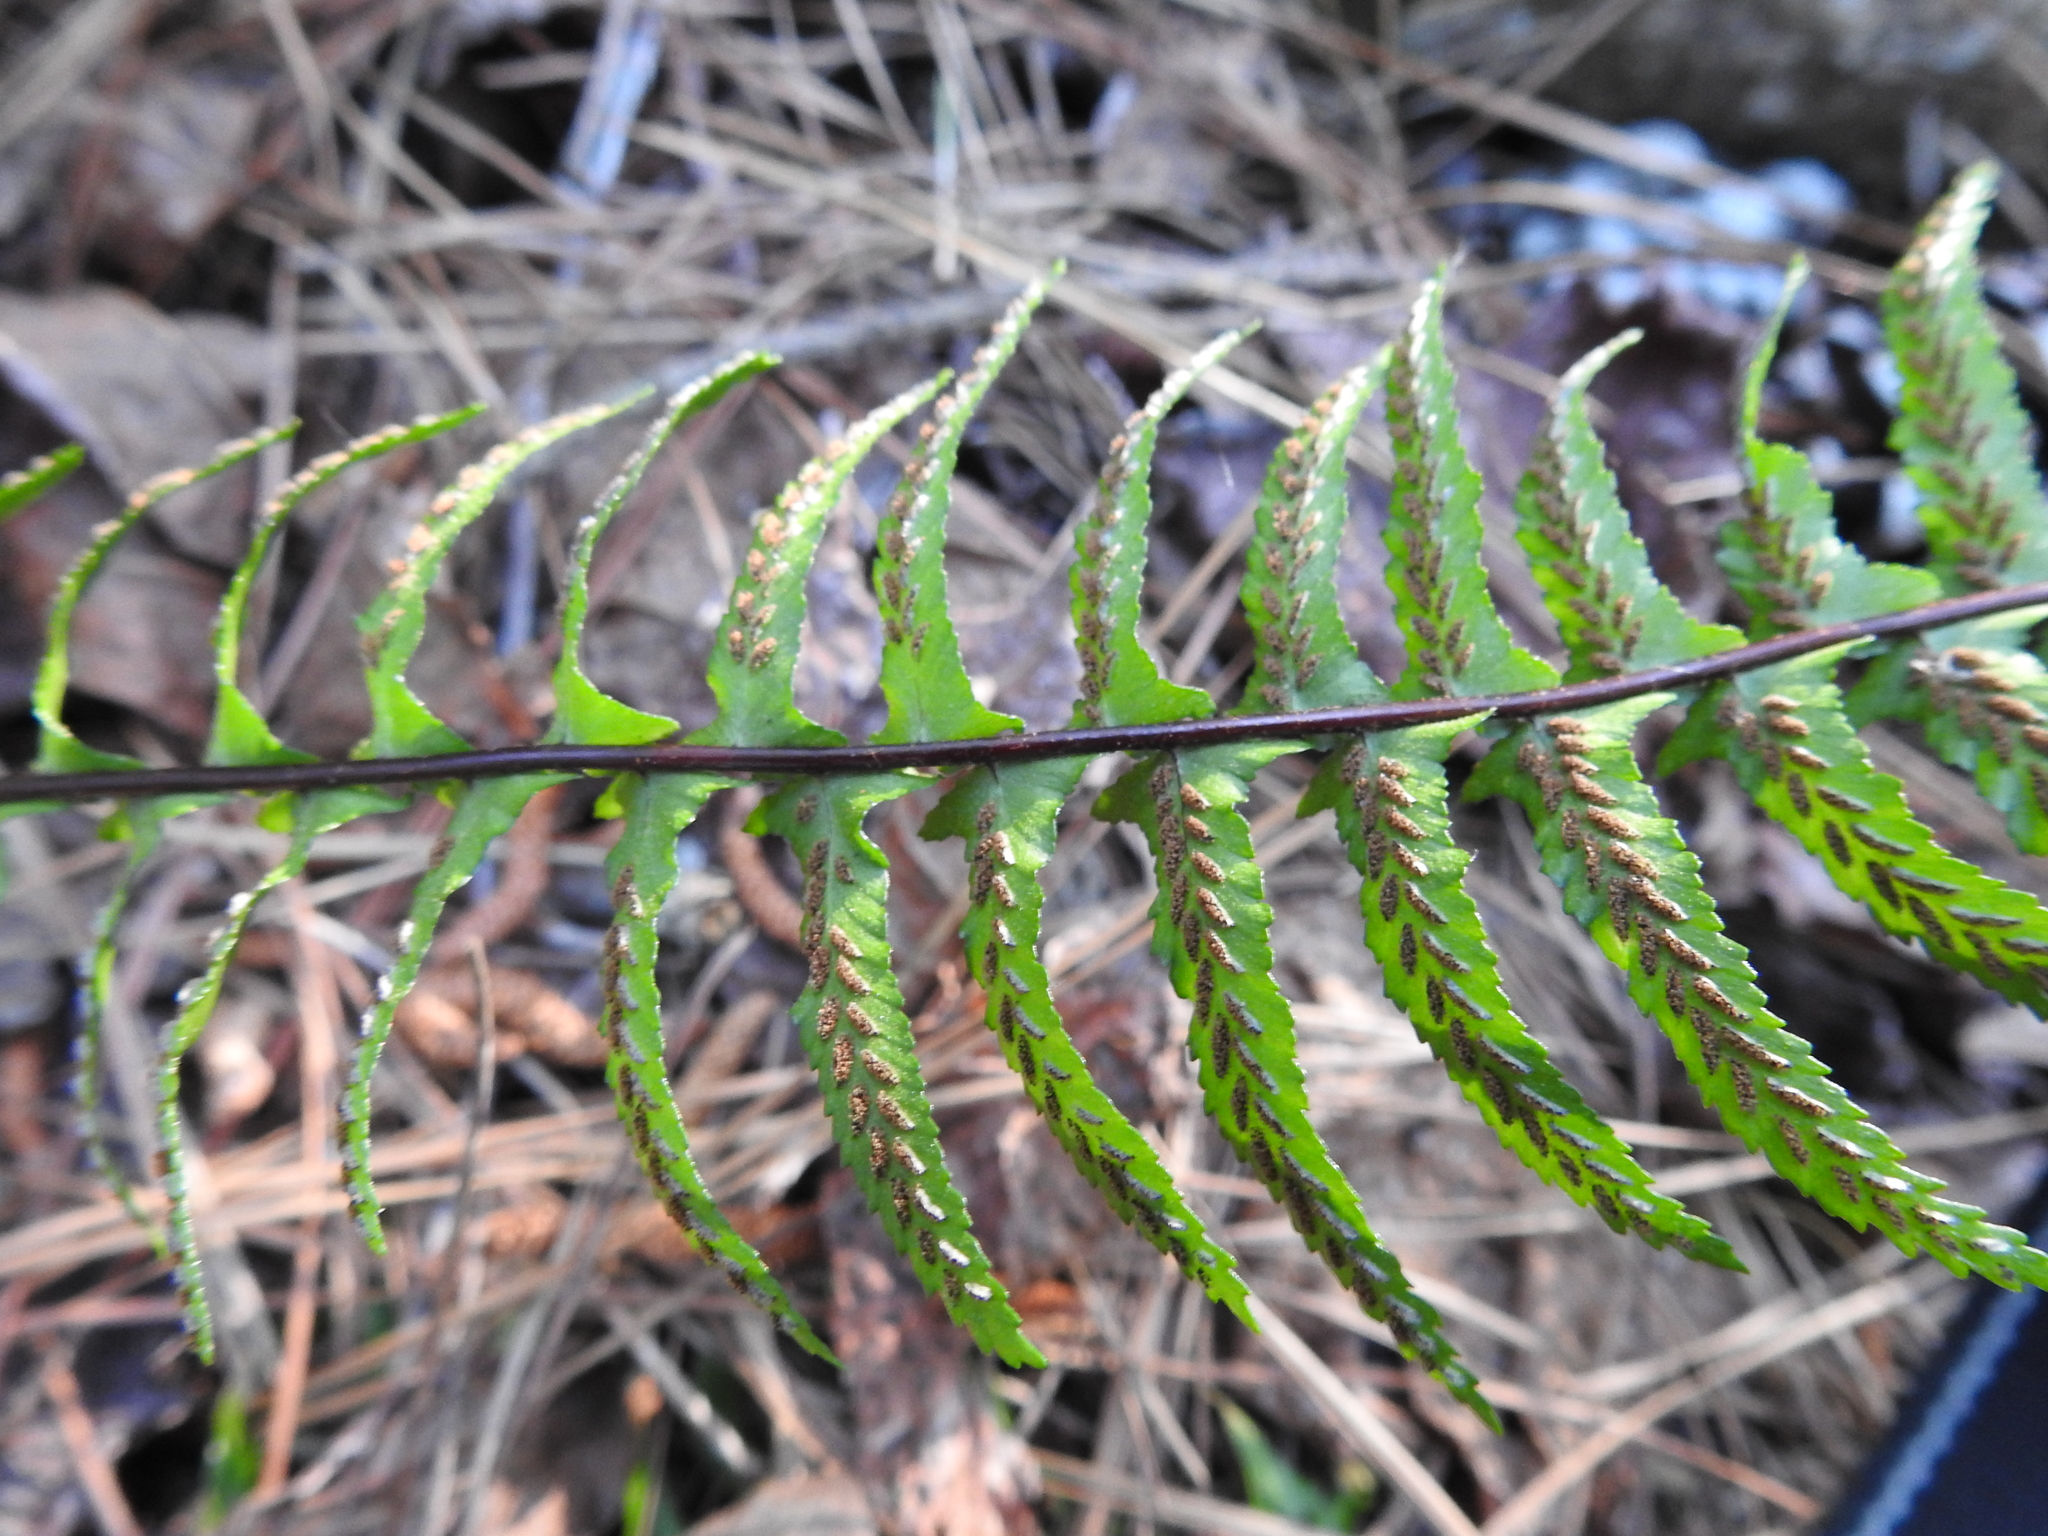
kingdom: Plantae
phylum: Tracheophyta
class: Polypodiopsida
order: Polypodiales
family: Aspleniaceae
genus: Asplenium
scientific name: Asplenium platyneuron
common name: Ebony spleenwort
